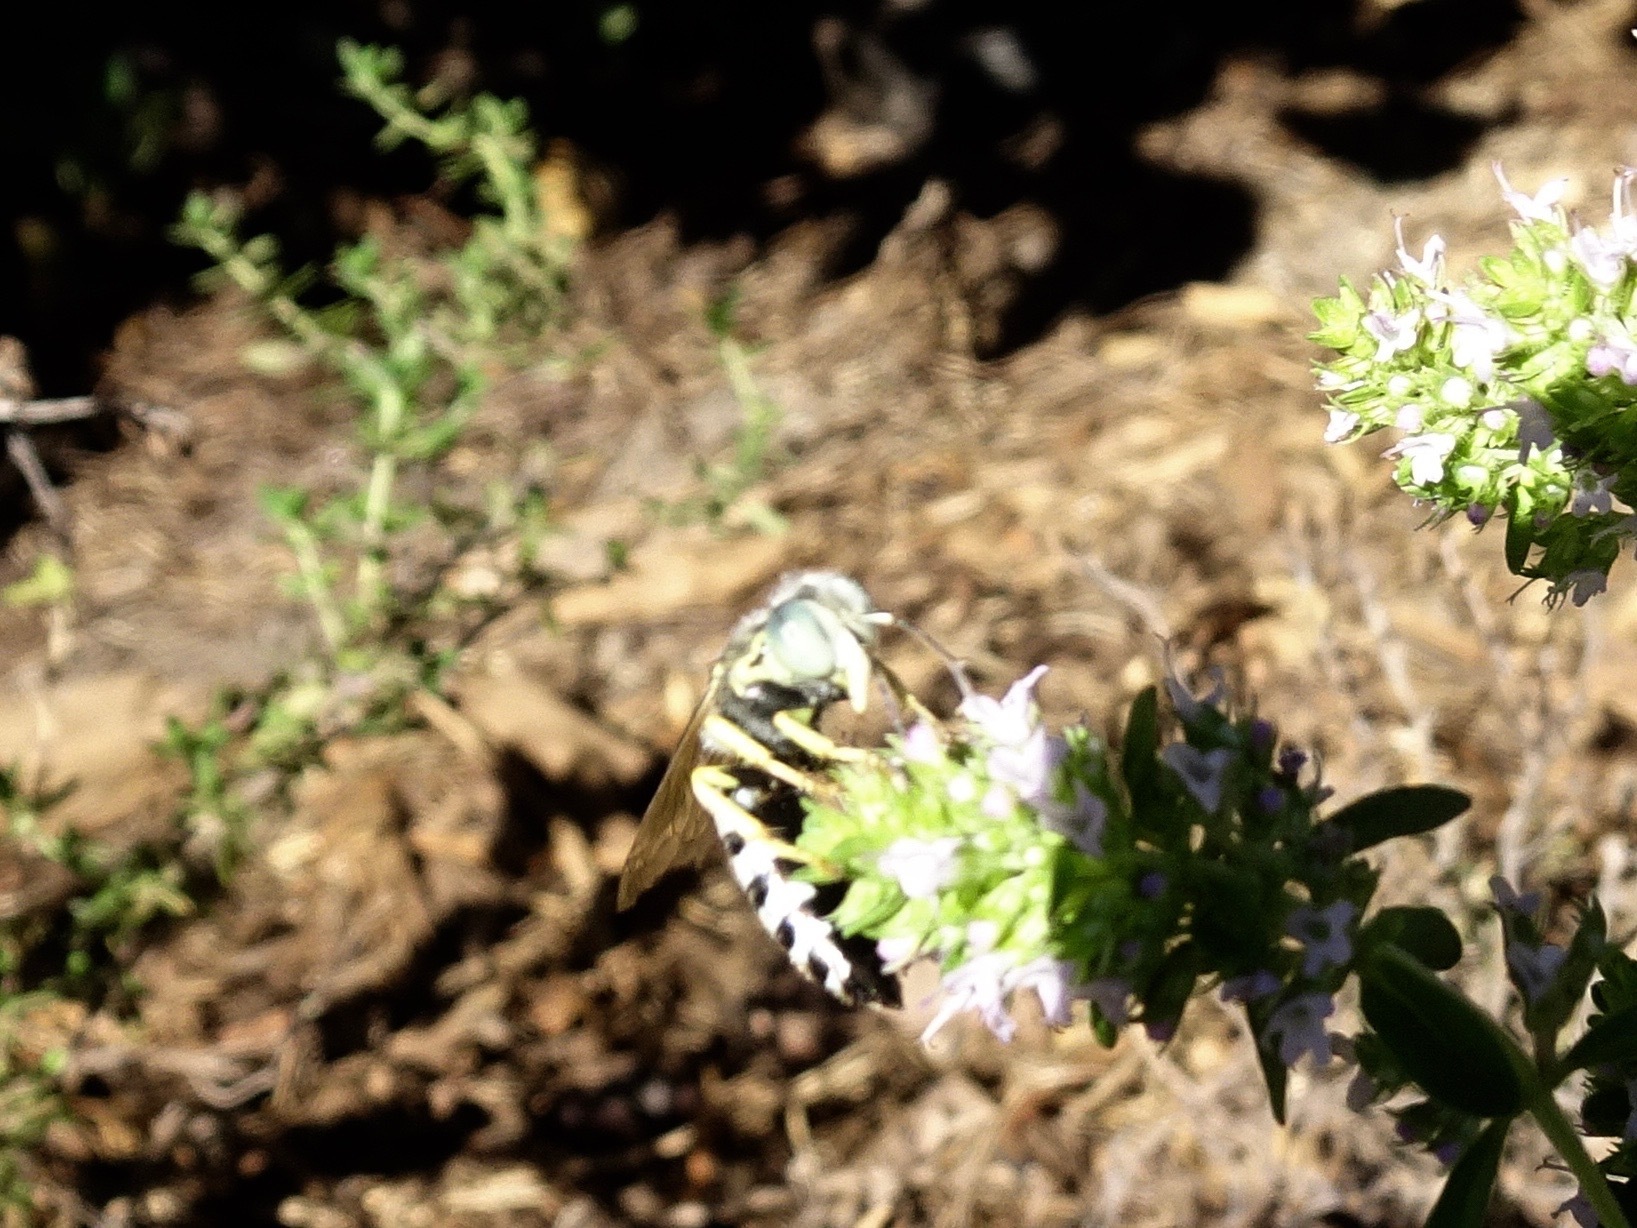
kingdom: Animalia
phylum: Arthropoda
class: Insecta
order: Hymenoptera
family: Crabronidae
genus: Bembix
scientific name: Bembix americana
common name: American sand wasp
